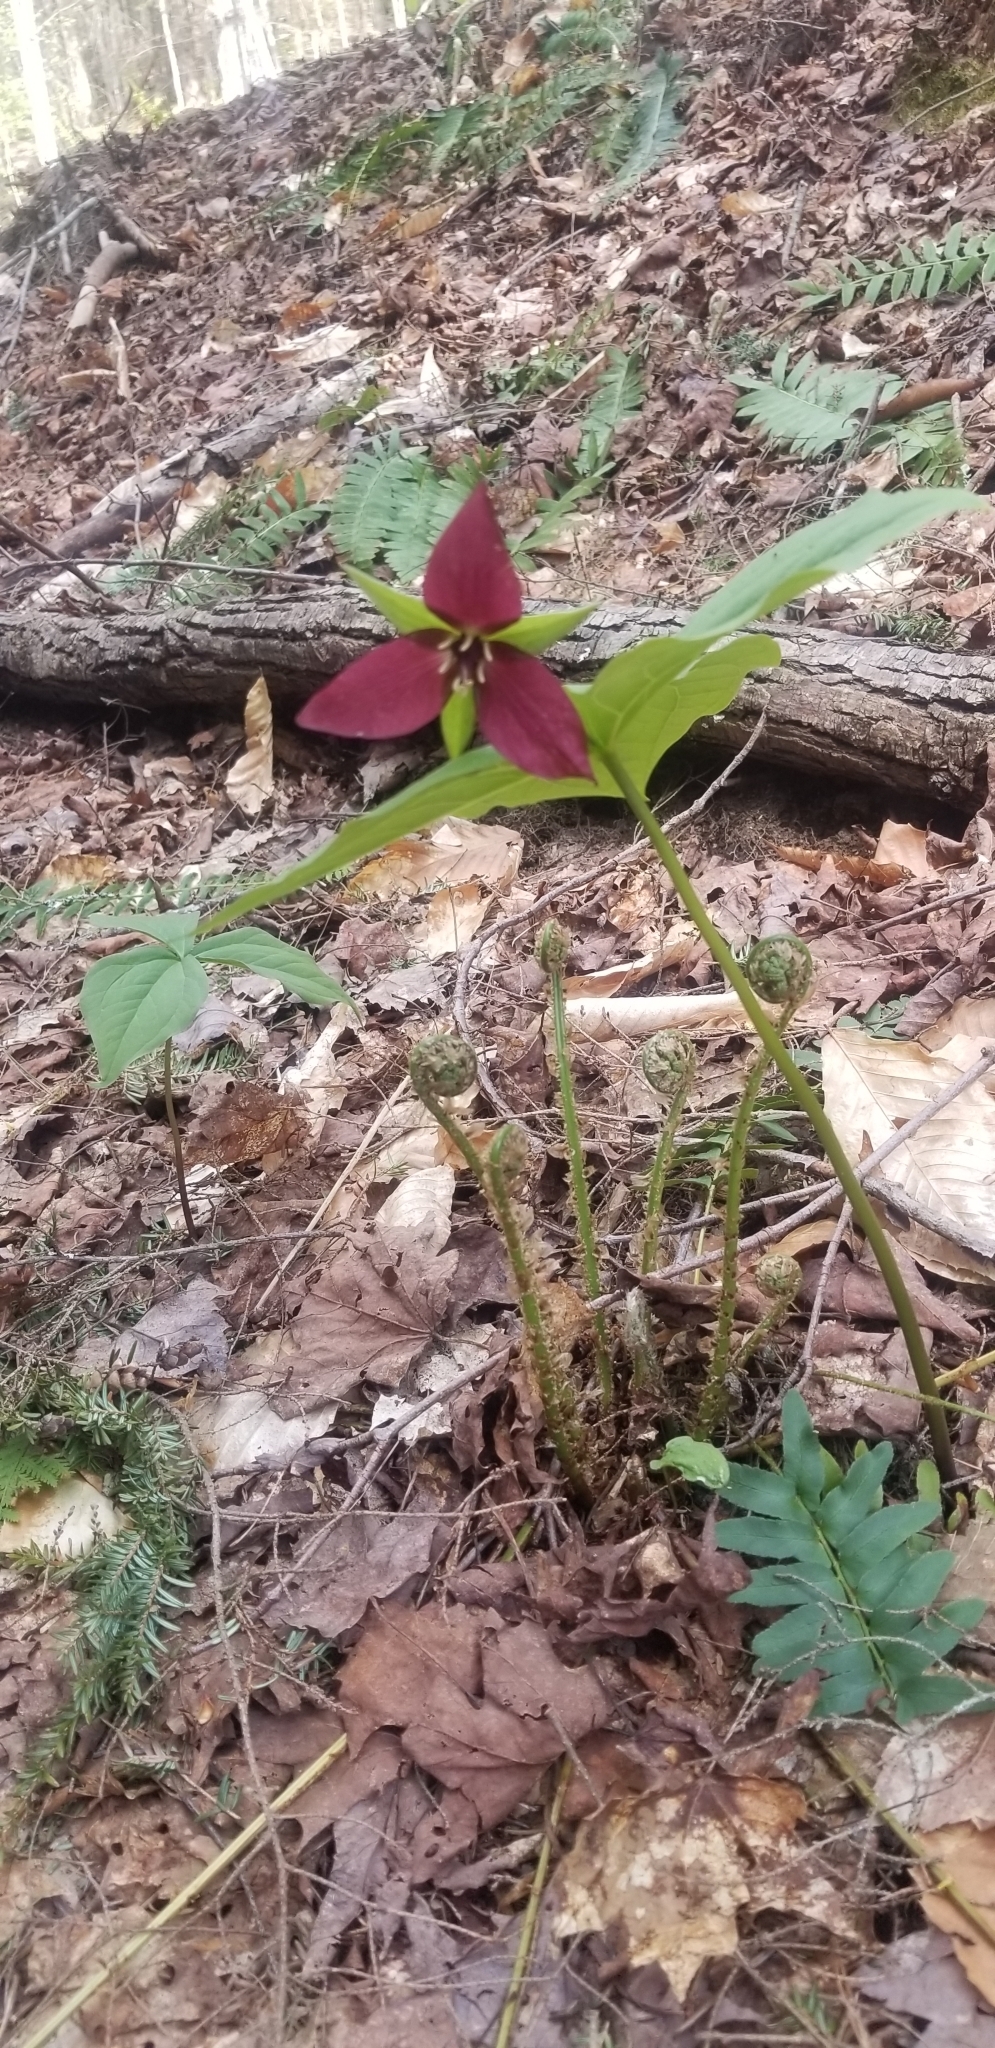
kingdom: Plantae
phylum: Tracheophyta
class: Liliopsida
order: Liliales
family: Melanthiaceae
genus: Trillium
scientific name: Trillium erectum
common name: Purple trillium
